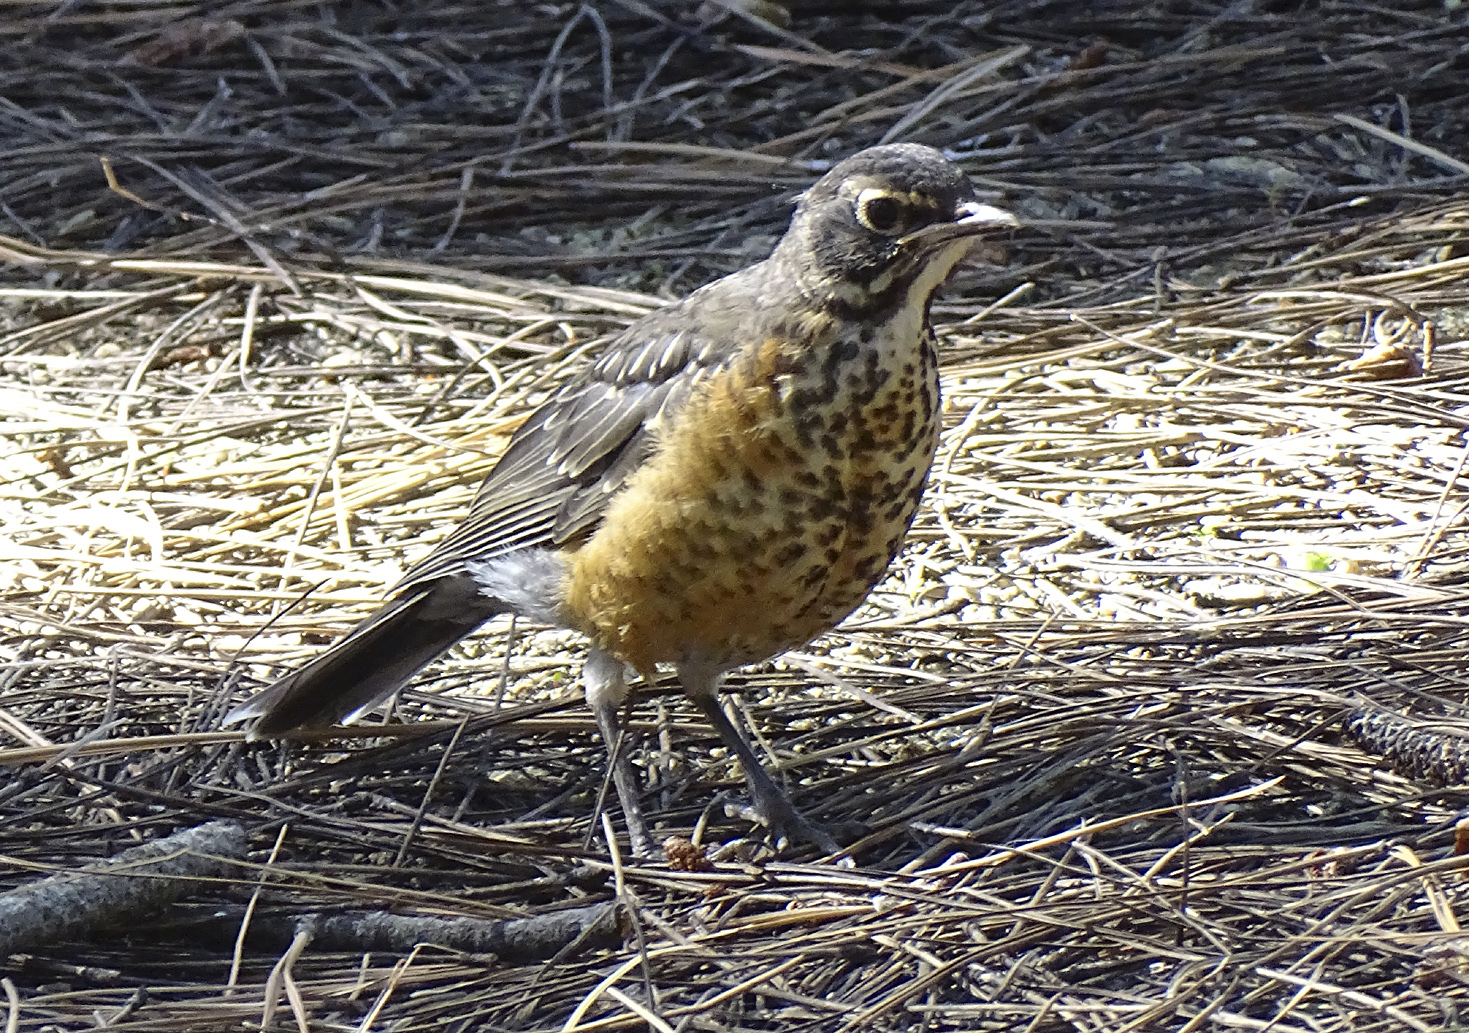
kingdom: Animalia
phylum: Chordata
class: Aves
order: Passeriformes
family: Turdidae
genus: Turdus
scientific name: Turdus migratorius
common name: American robin
